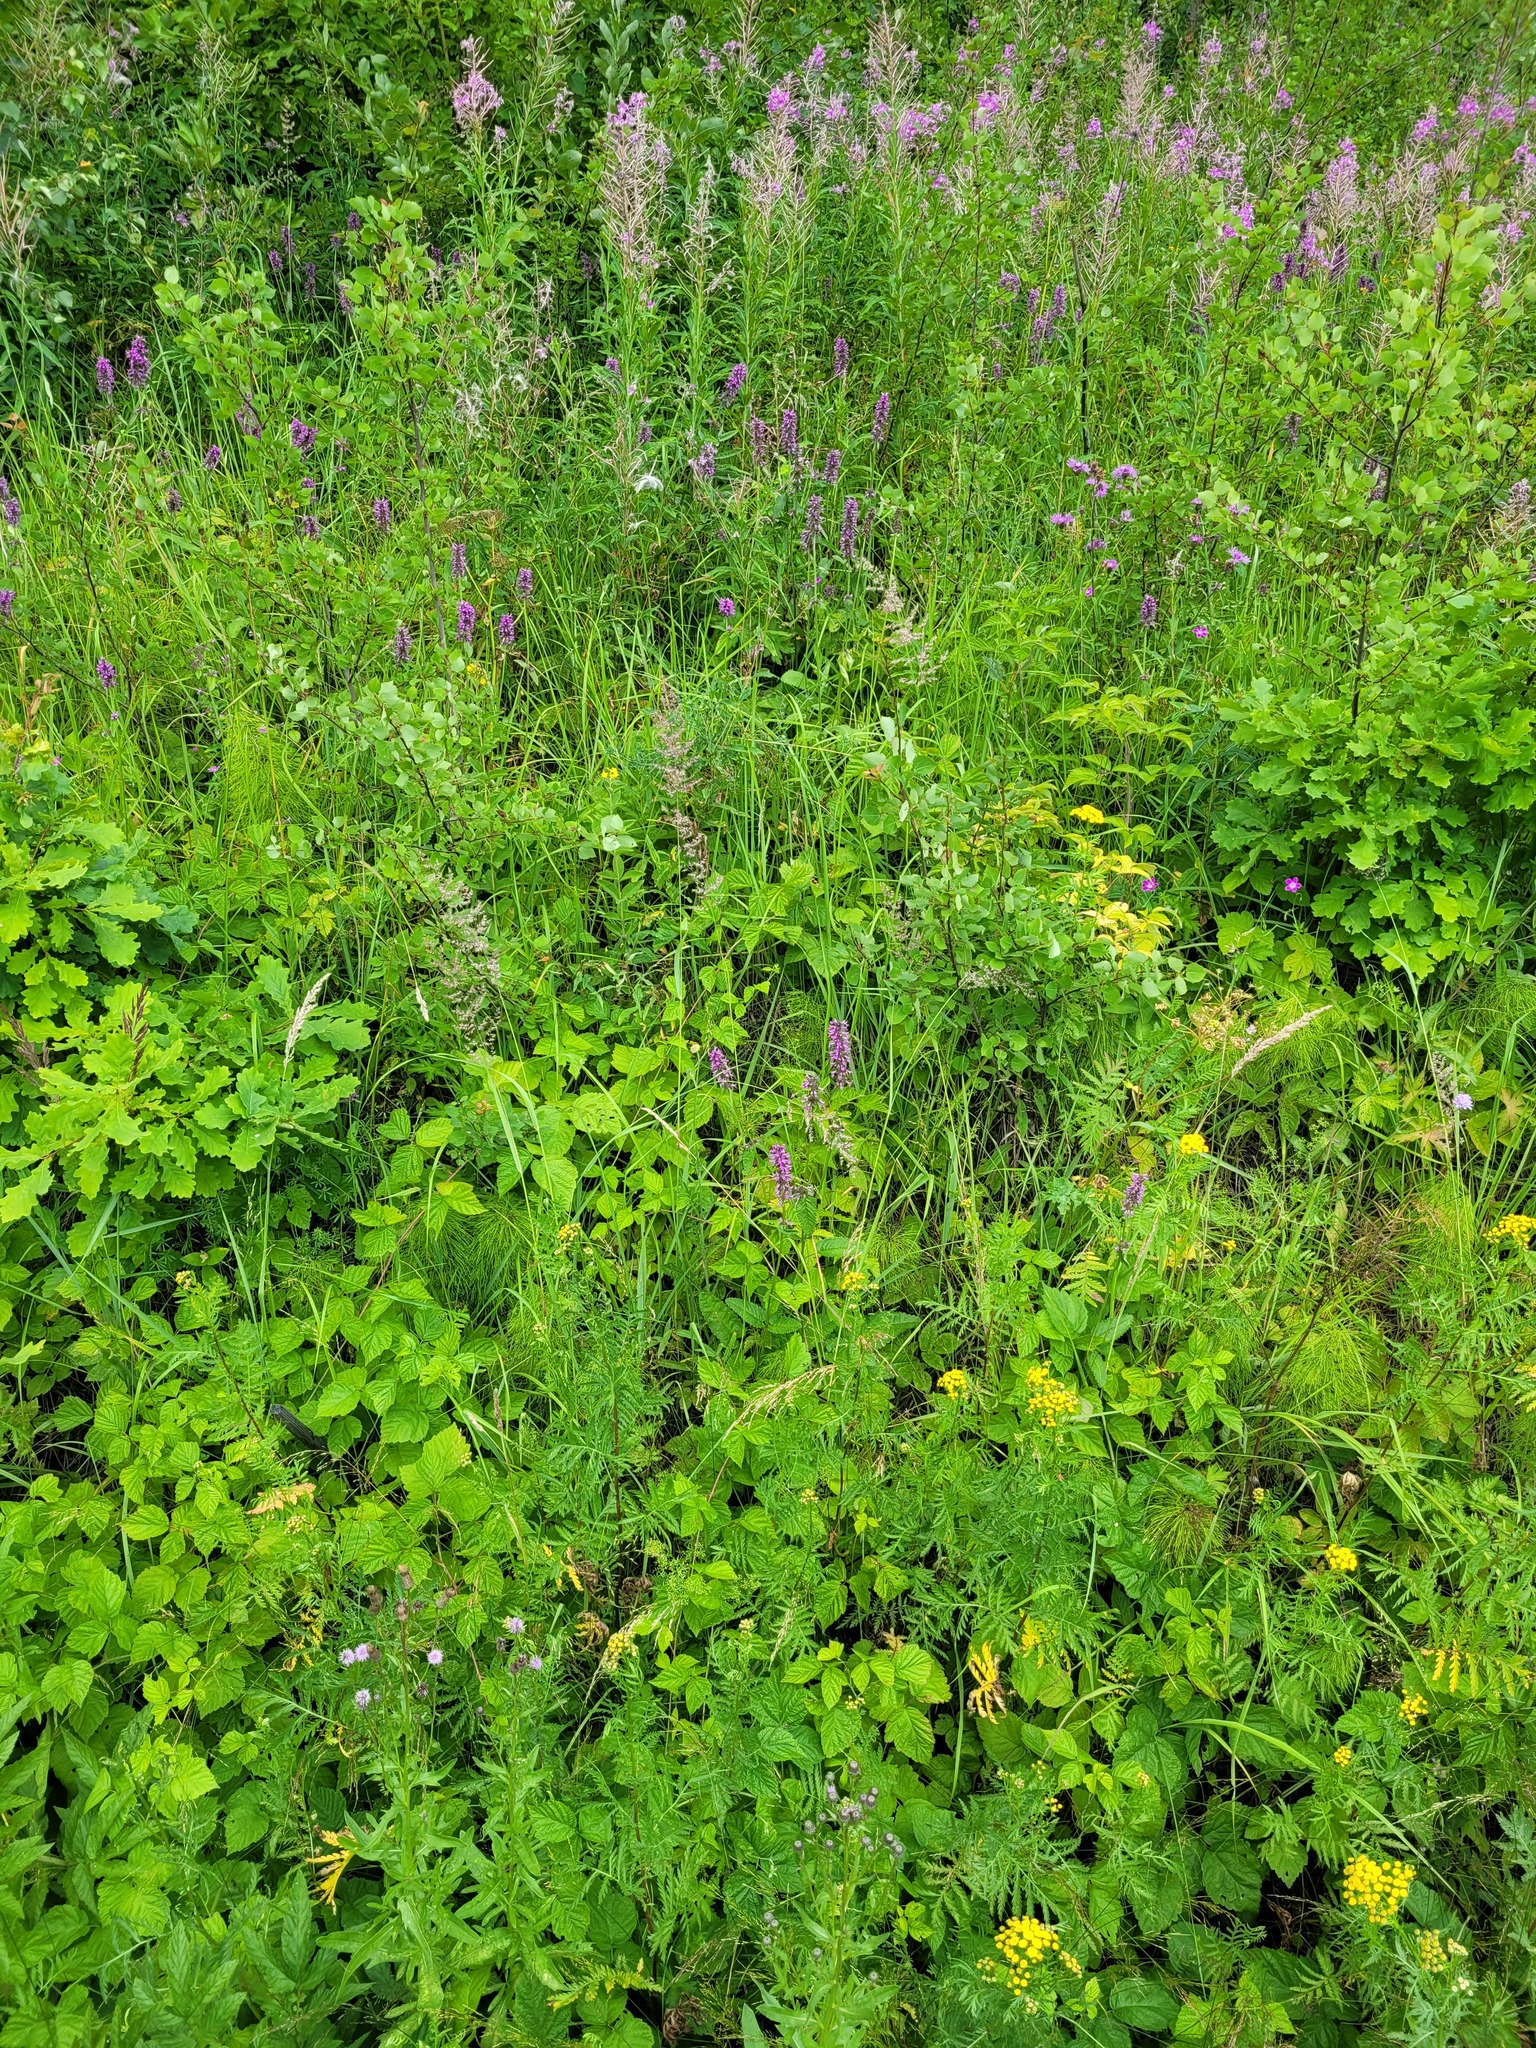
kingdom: Plantae
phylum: Tracheophyta
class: Magnoliopsida
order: Lamiales
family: Lamiaceae
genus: Betonica
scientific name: Betonica officinalis
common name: Bishop's-wort
